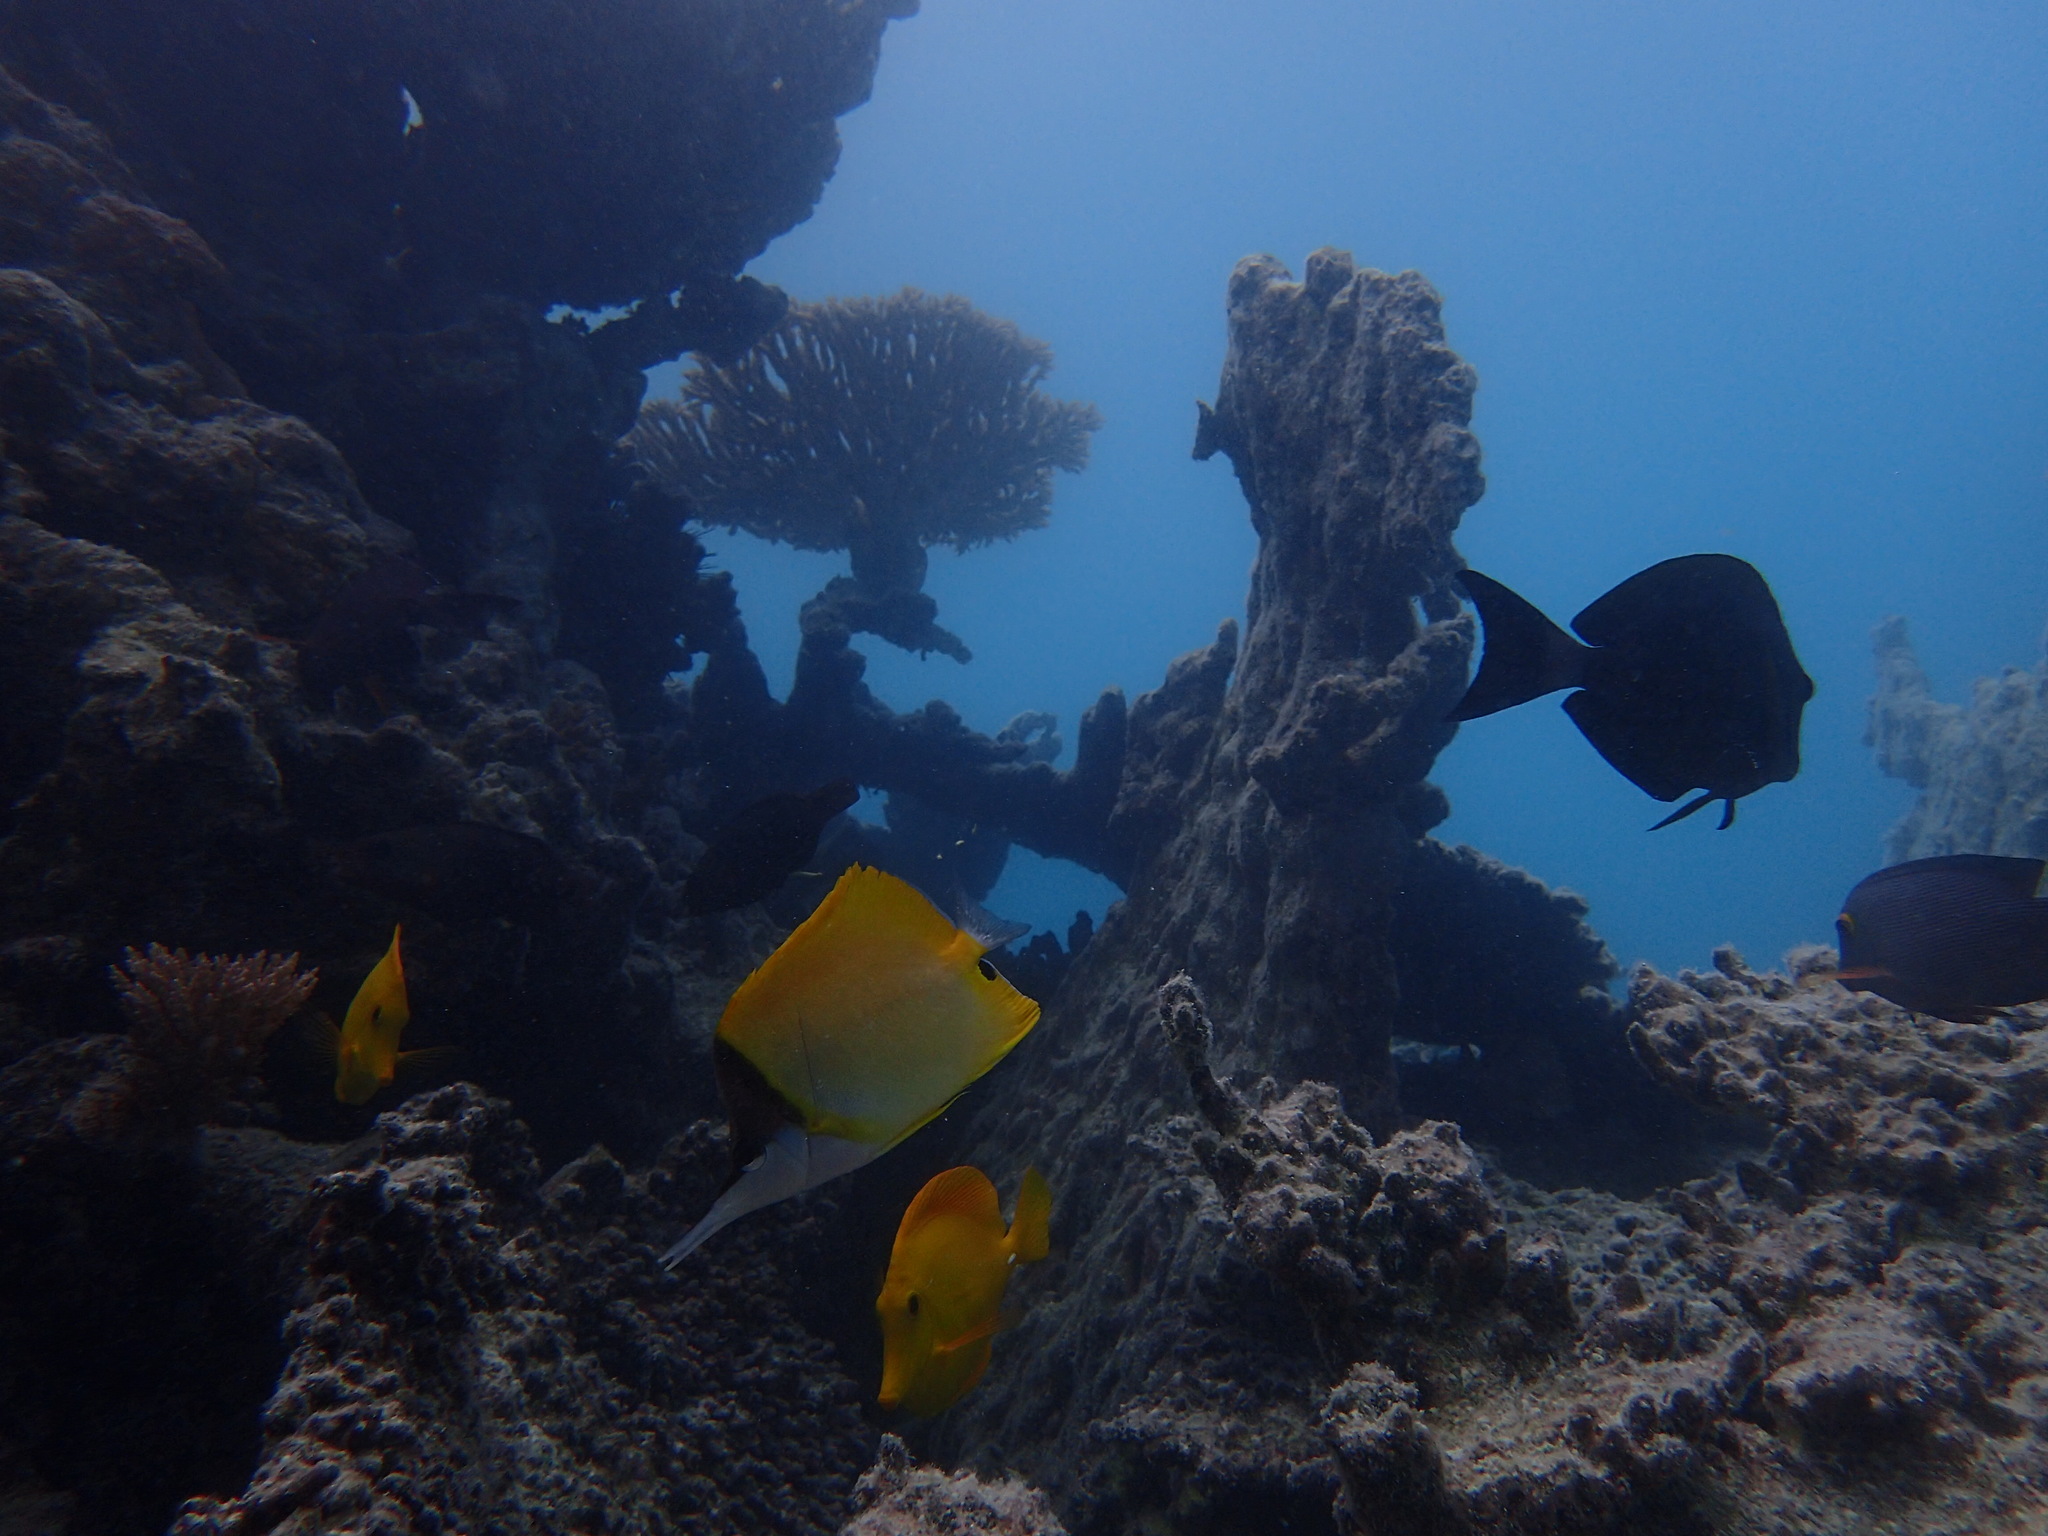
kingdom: Animalia
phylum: Chordata
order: Perciformes
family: Chaetodontidae
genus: Forcipiger
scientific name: Forcipiger flavissimus
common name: Forcepsfish
